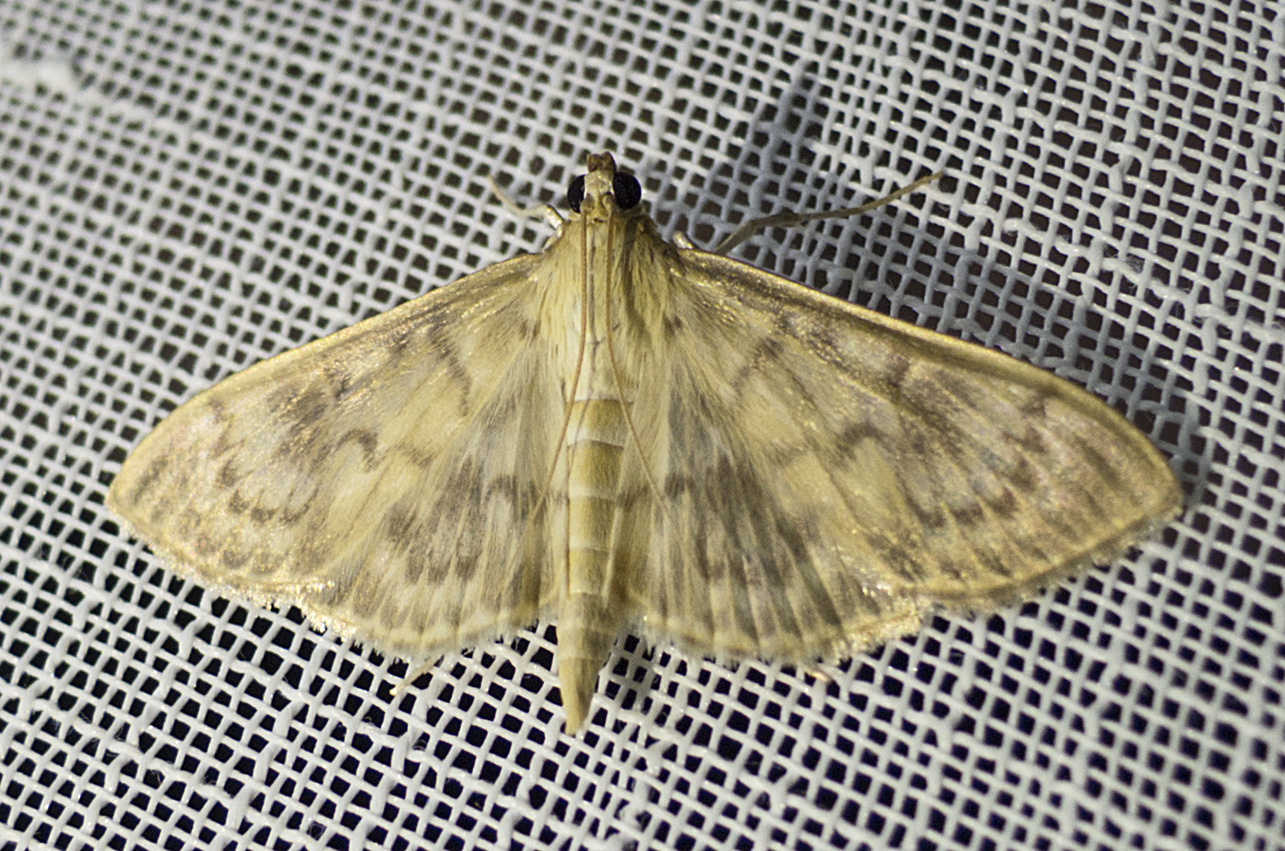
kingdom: Animalia
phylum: Arthropoda
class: Insecta
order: Lepidoptera
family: Crambidae
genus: Patania
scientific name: Patania ruralis
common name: Mother of pearl
